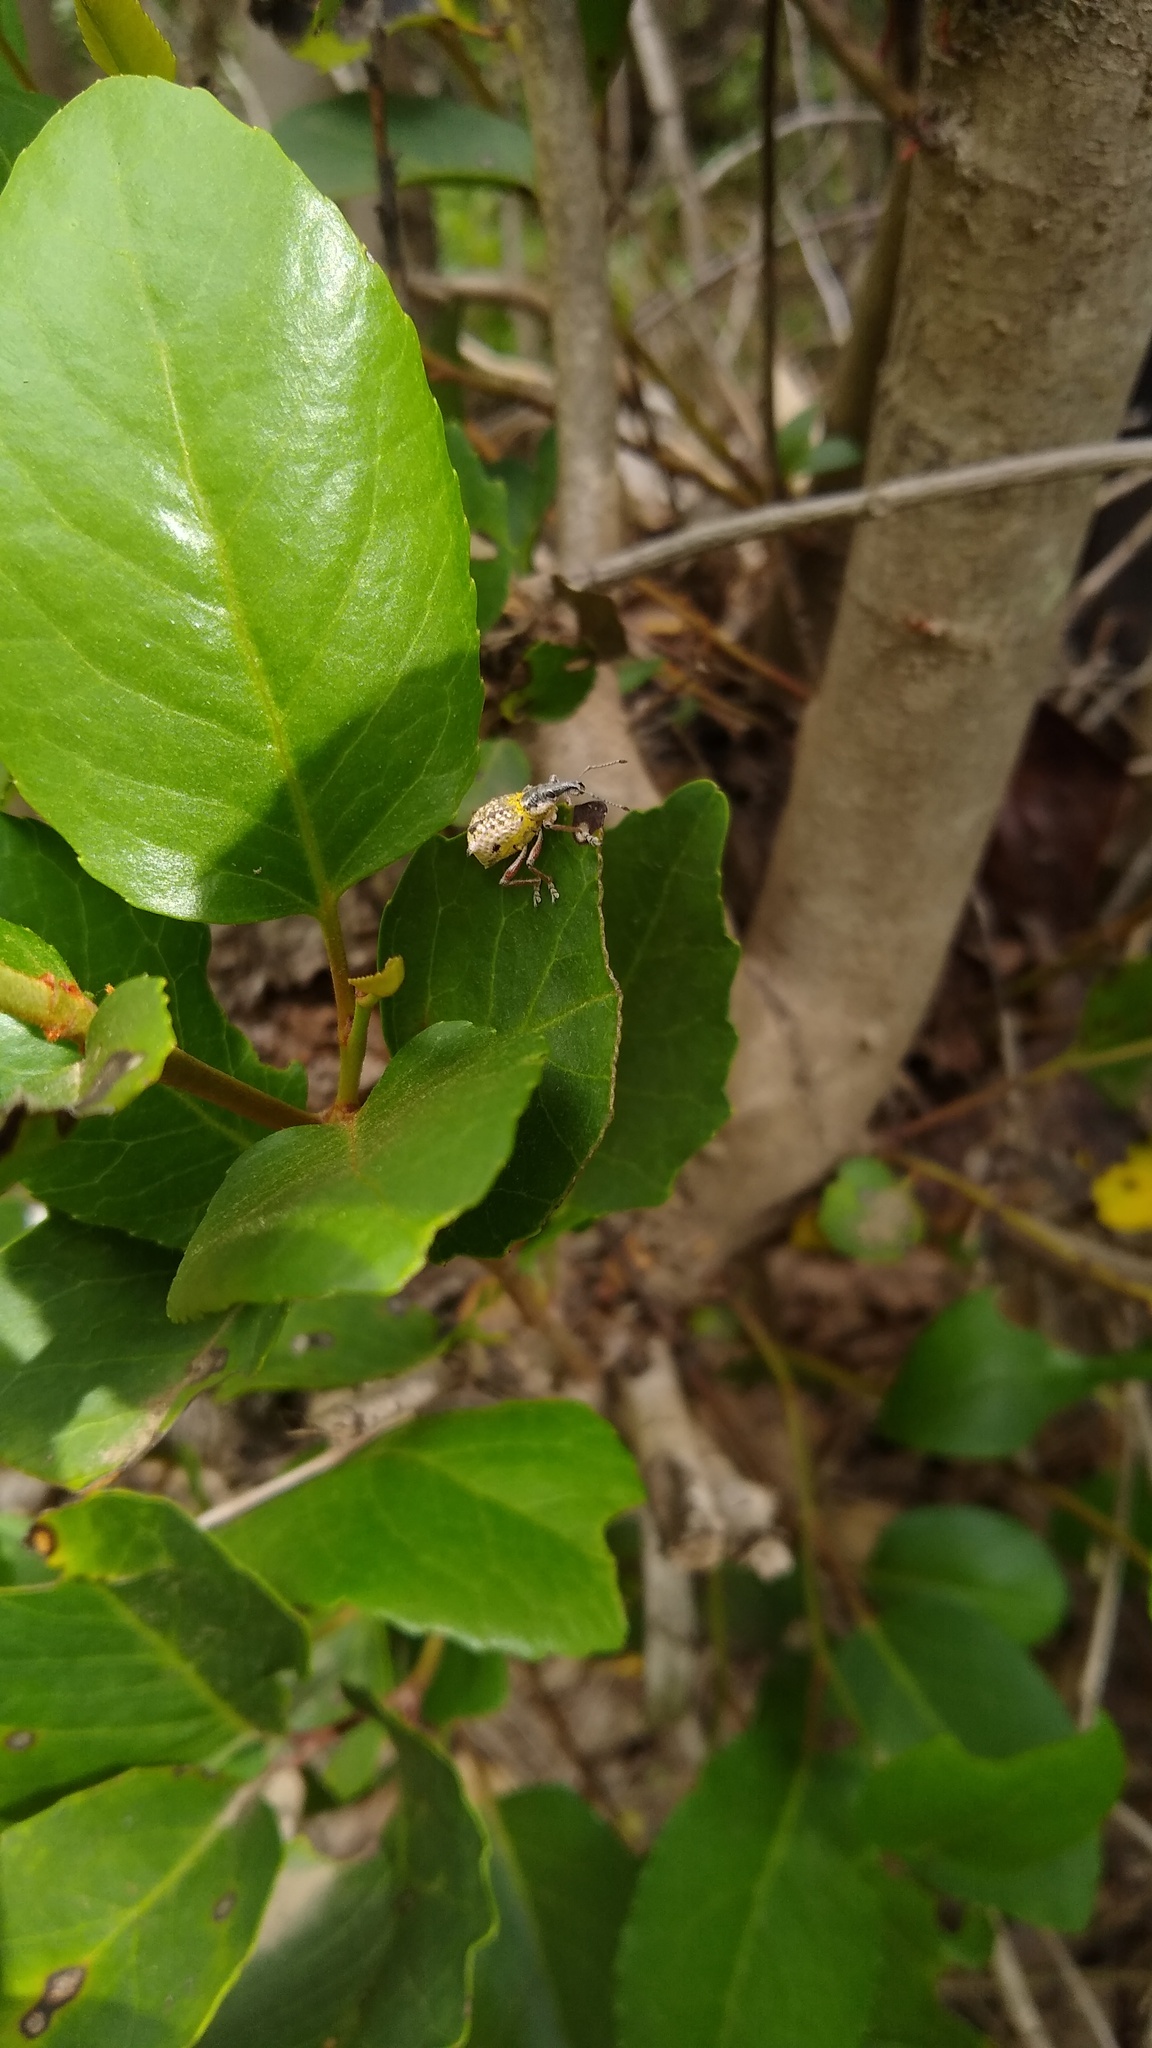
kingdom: Animalia
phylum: Arthropoda
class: Insecta
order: Coleoptera
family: Curculionidae
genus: Hybreoleptops
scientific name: Hybreoleptops tuberculifer
